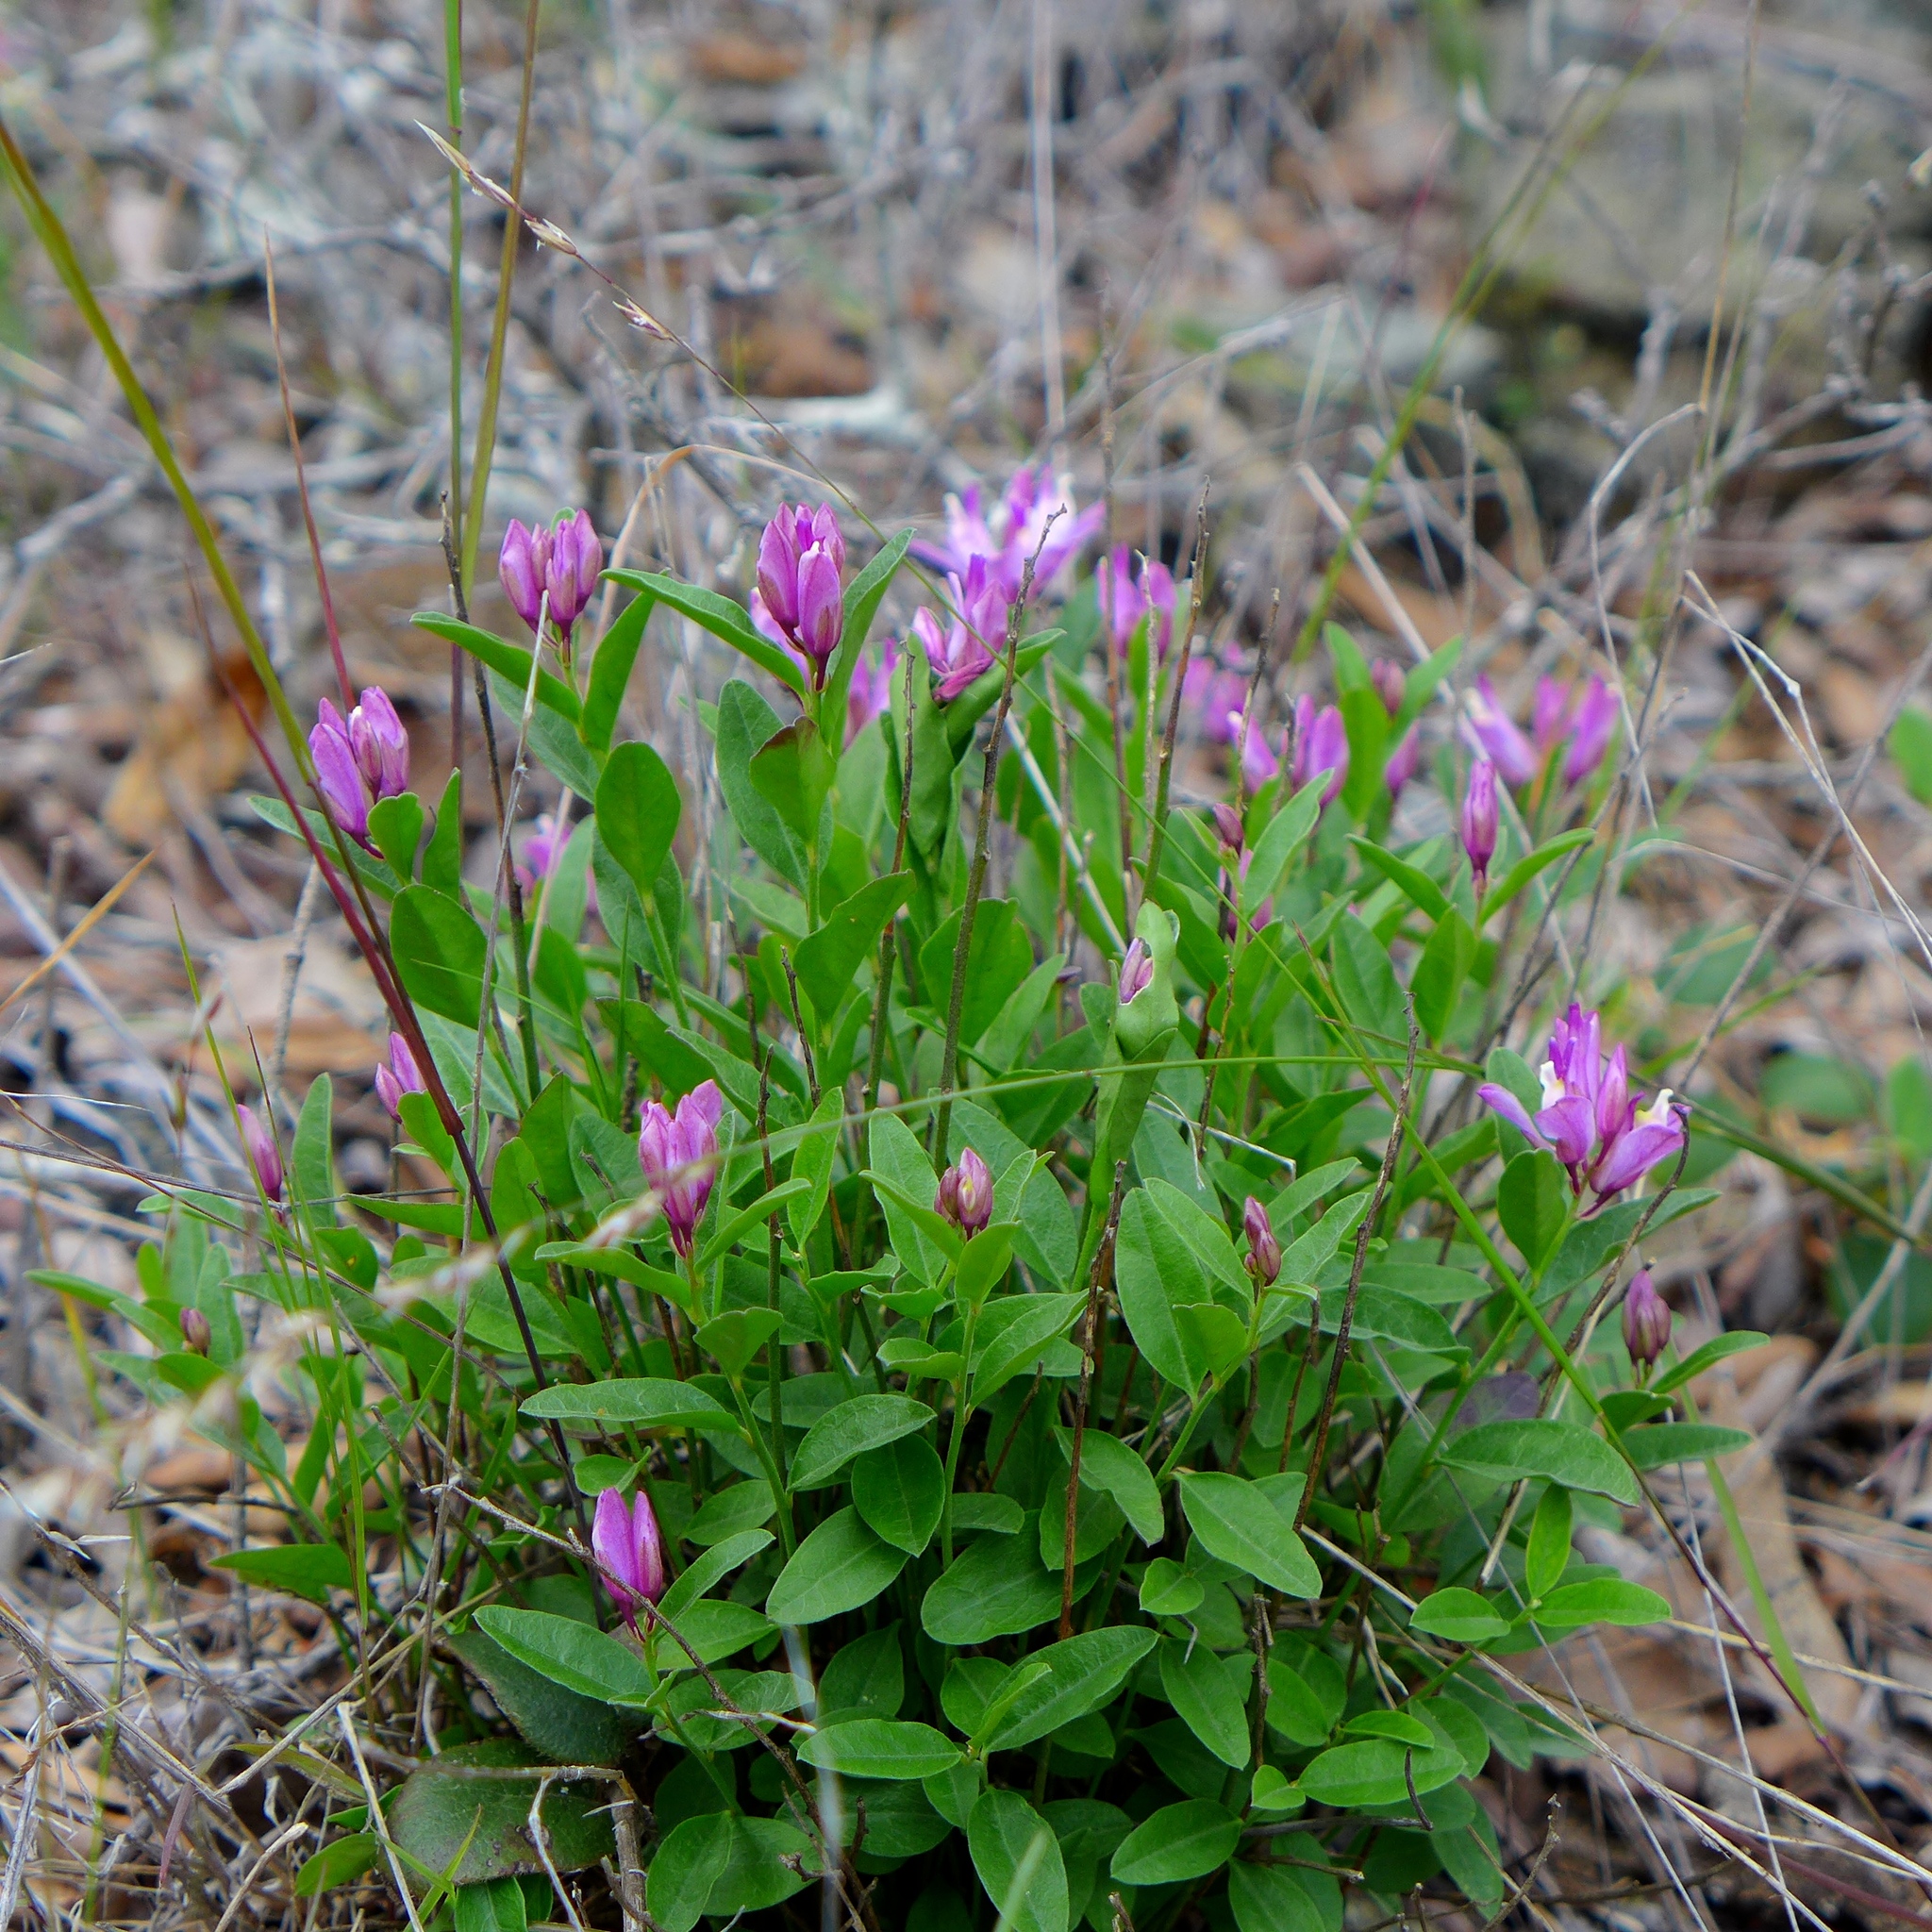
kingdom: Plantae
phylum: Tracheophyta
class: Magnoliopsida
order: Fabales
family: Polygalaceae
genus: Rhinotropis
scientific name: Rhinotropis californica
